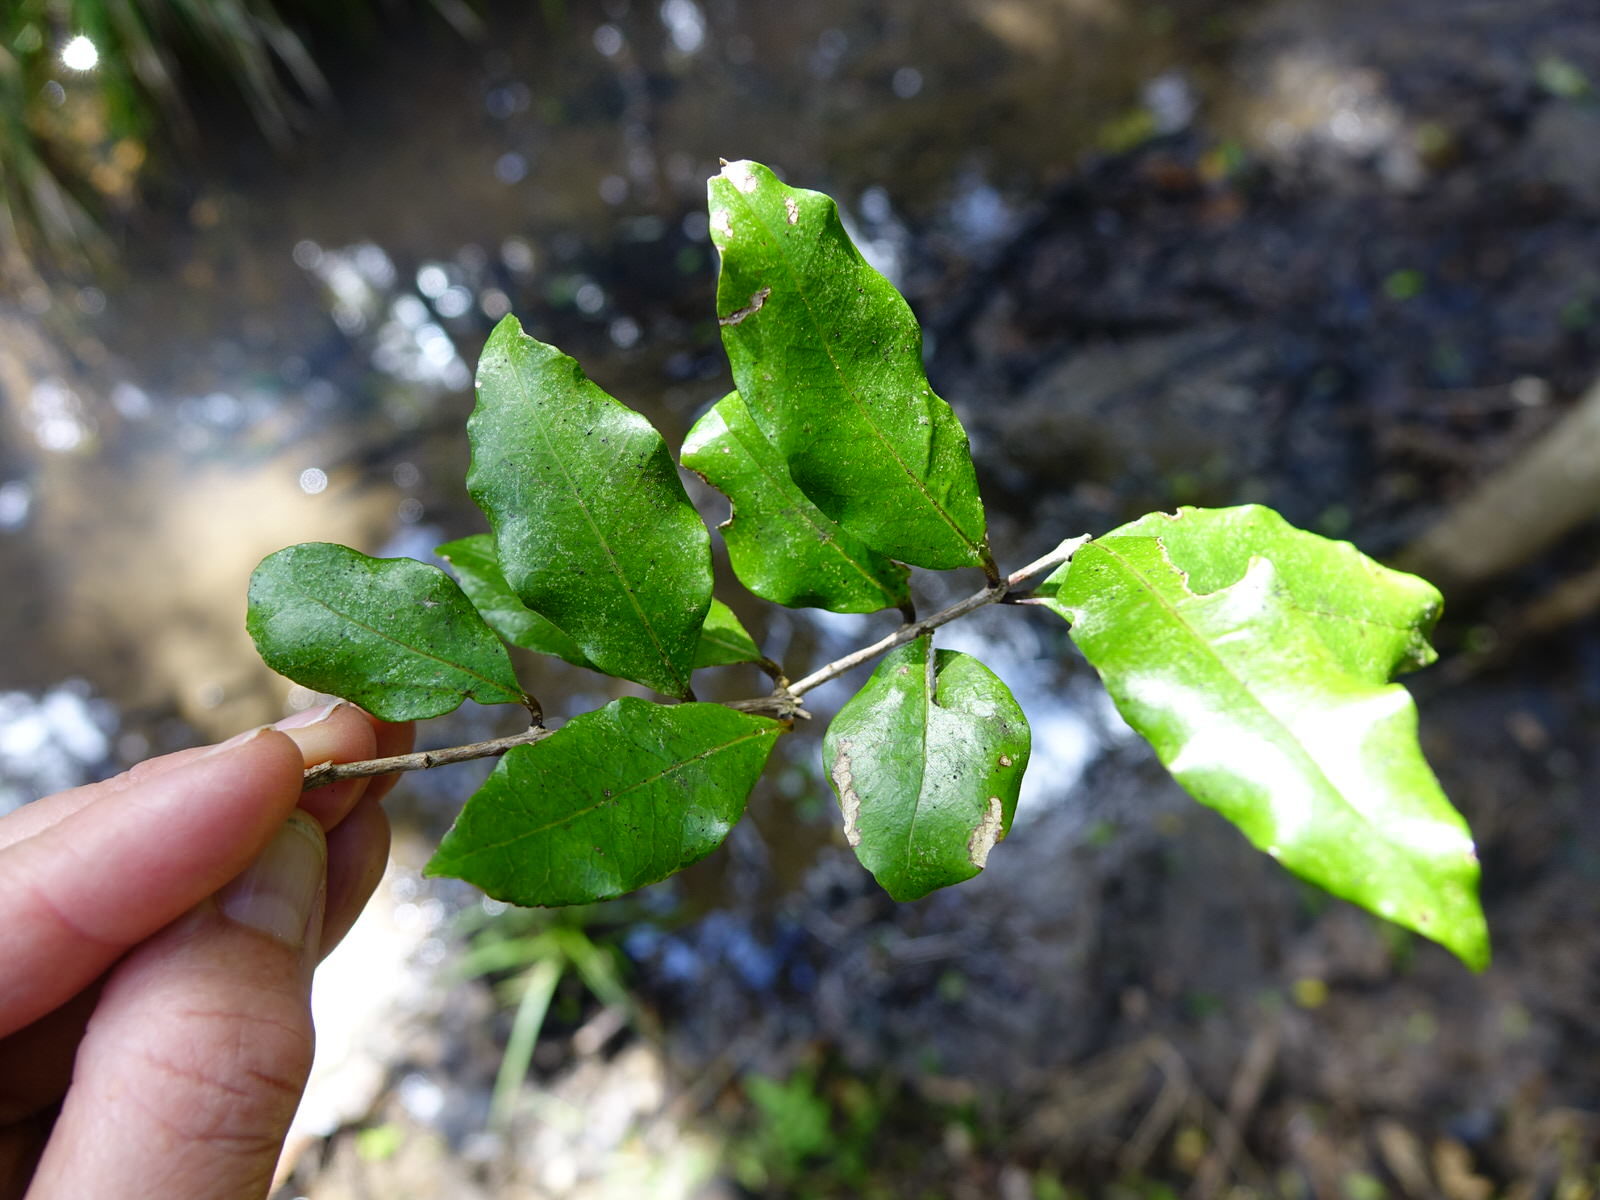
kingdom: Plantae
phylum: Tracheophyta
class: Magnoliopsida
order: Myrtales
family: Myrtaceae
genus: Syzygium
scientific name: Syzygium maire
